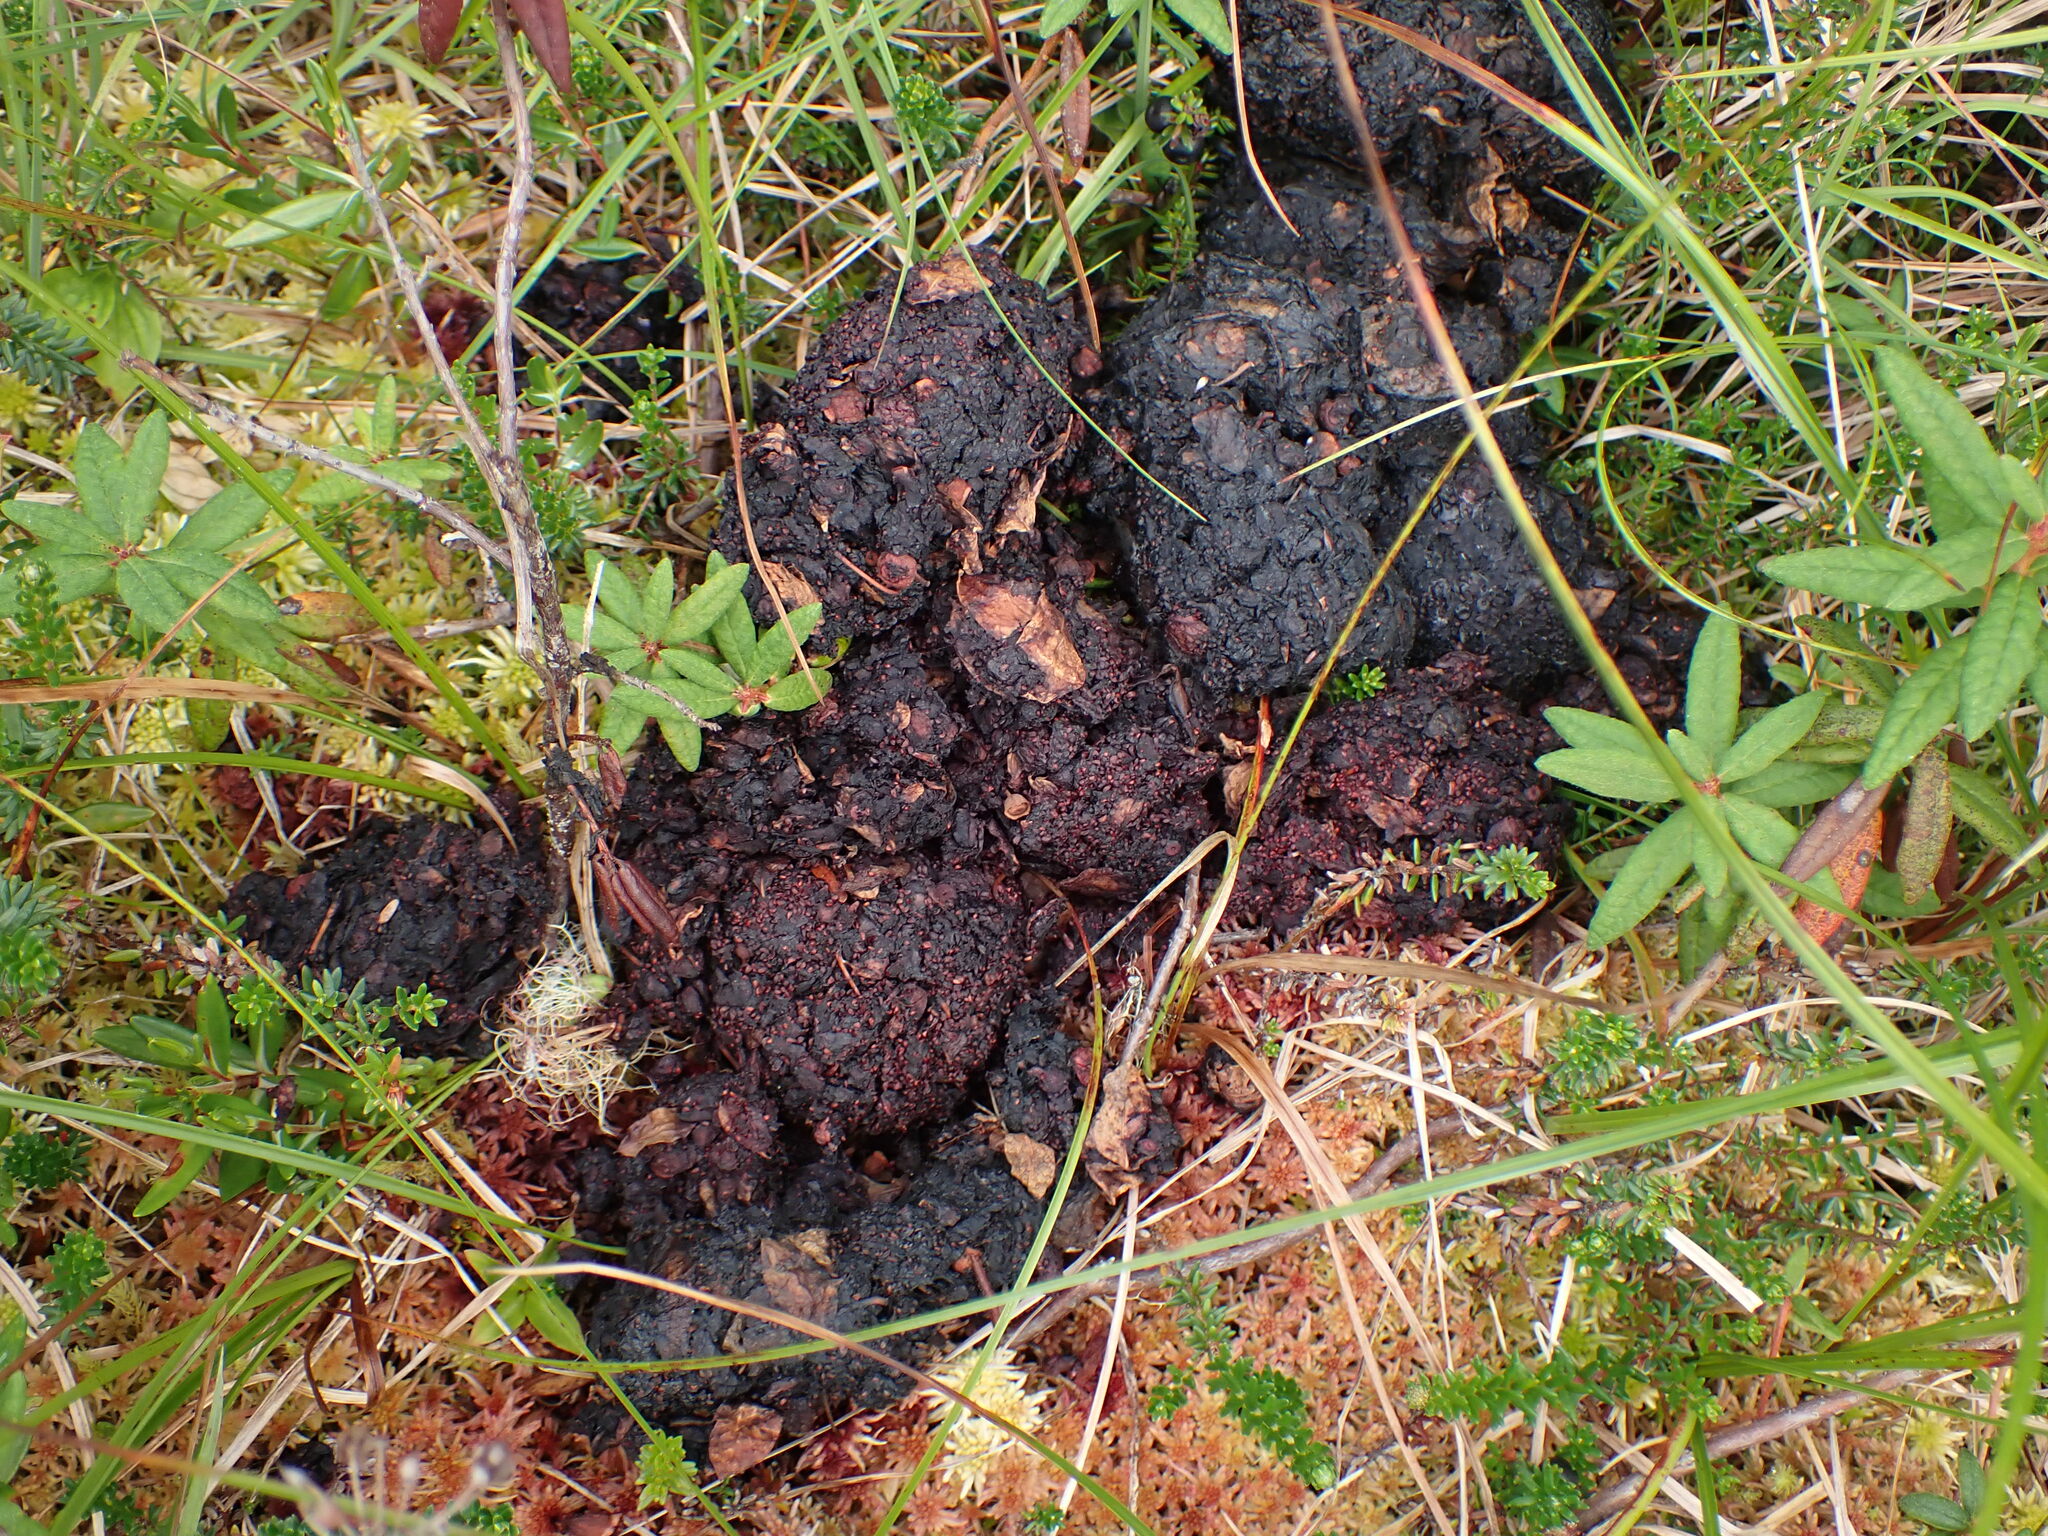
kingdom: Animalia
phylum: Chordata
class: Mammalia
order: Carnivora
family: Ursidae
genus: Ursus
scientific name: Ursus americanus
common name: American black bear
